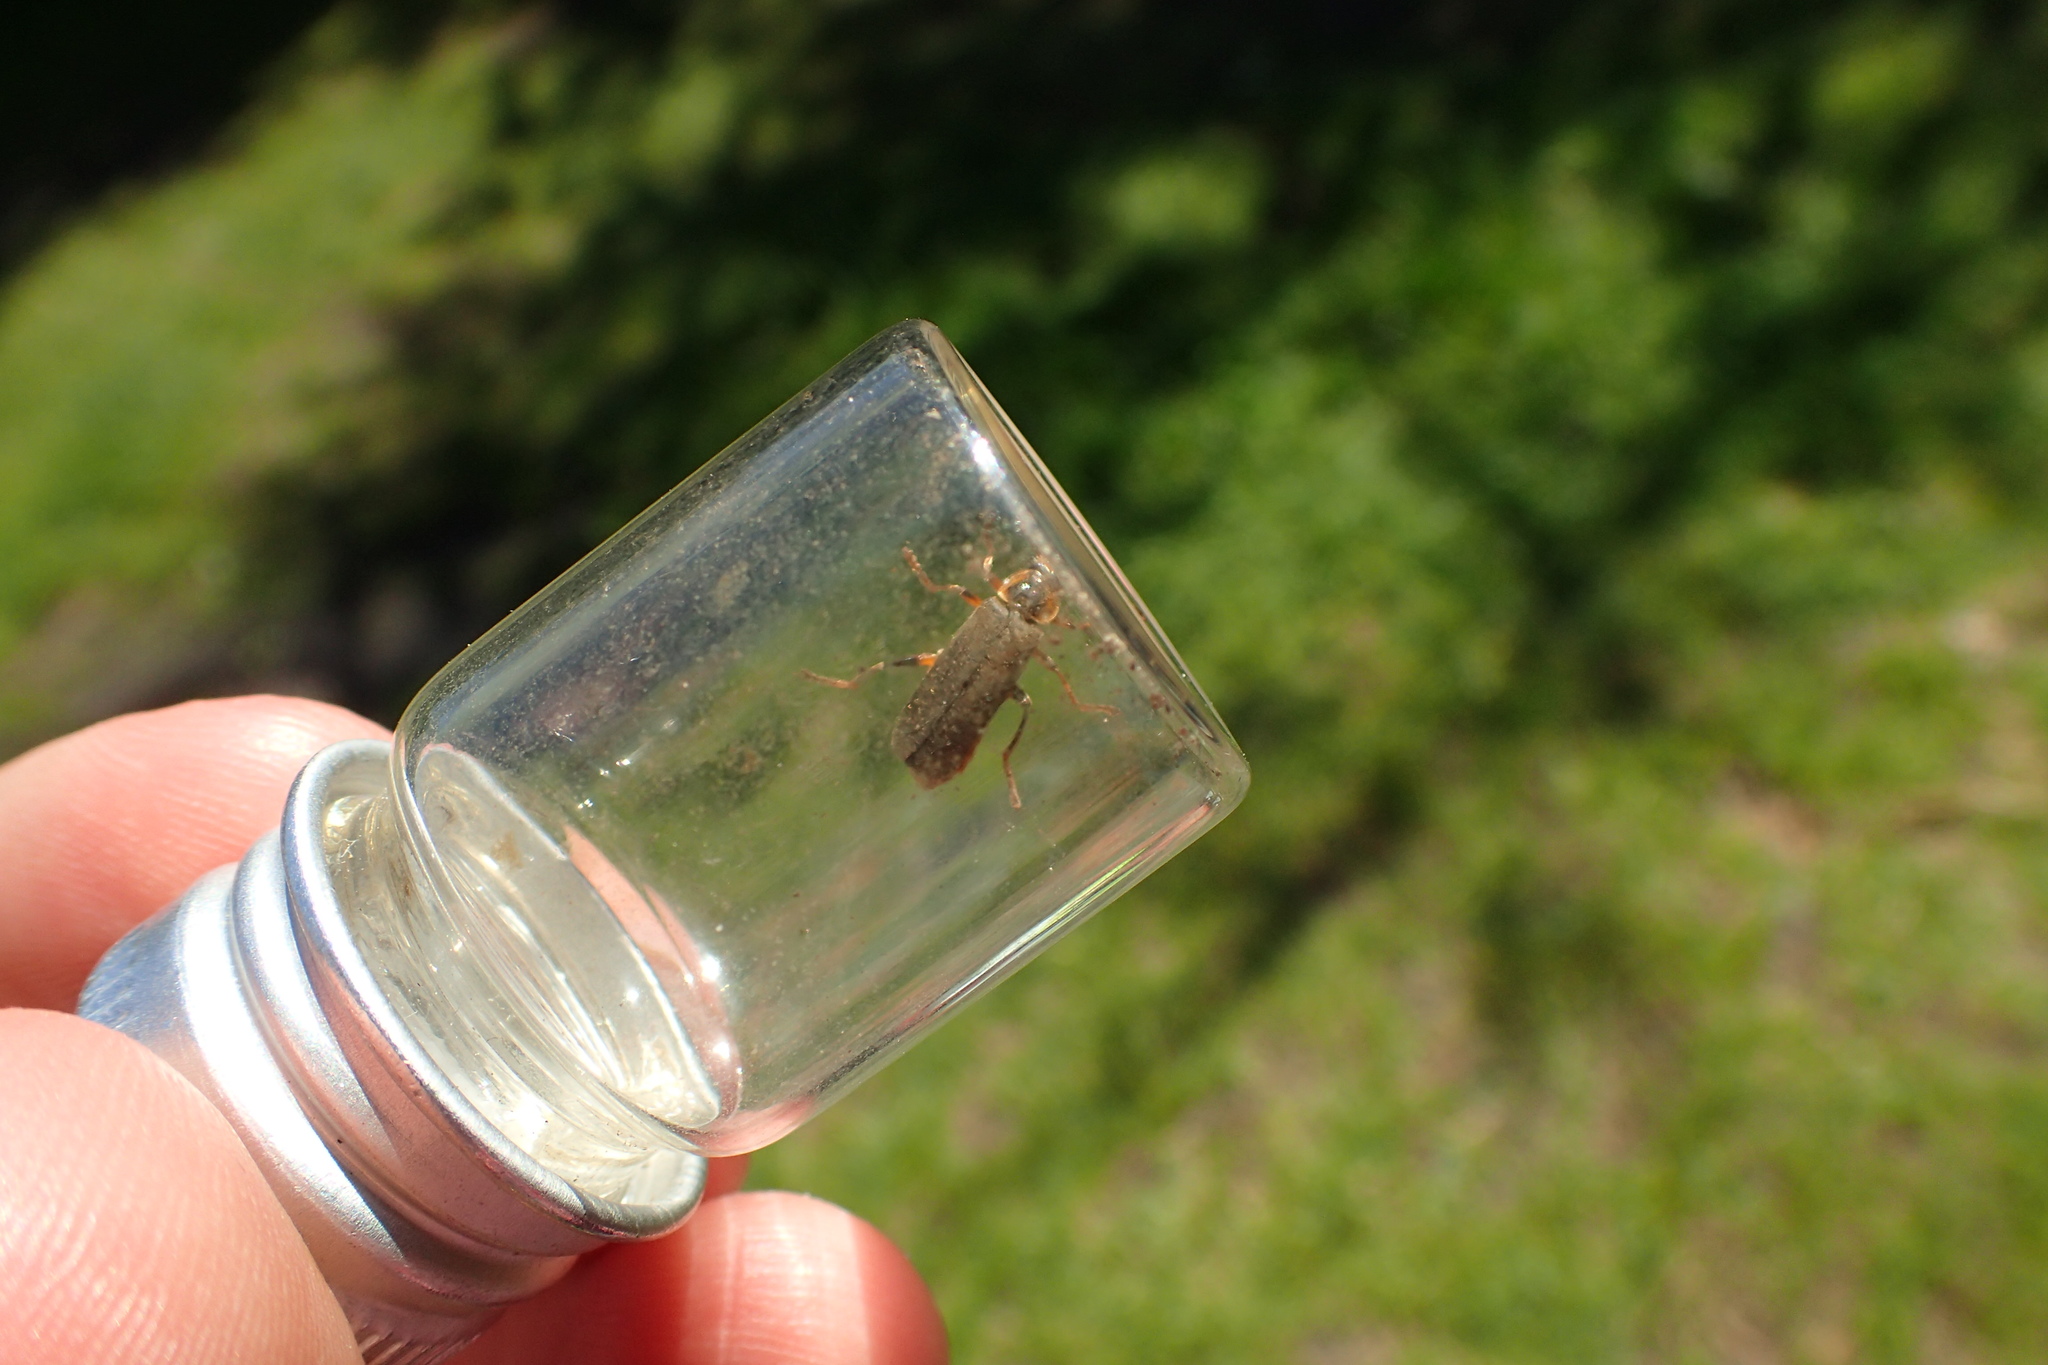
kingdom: Animalia
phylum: Arthropoda
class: Insecta
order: Coleoptera
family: Cantharidae
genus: Cantharis
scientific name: Cantharis nigricans
